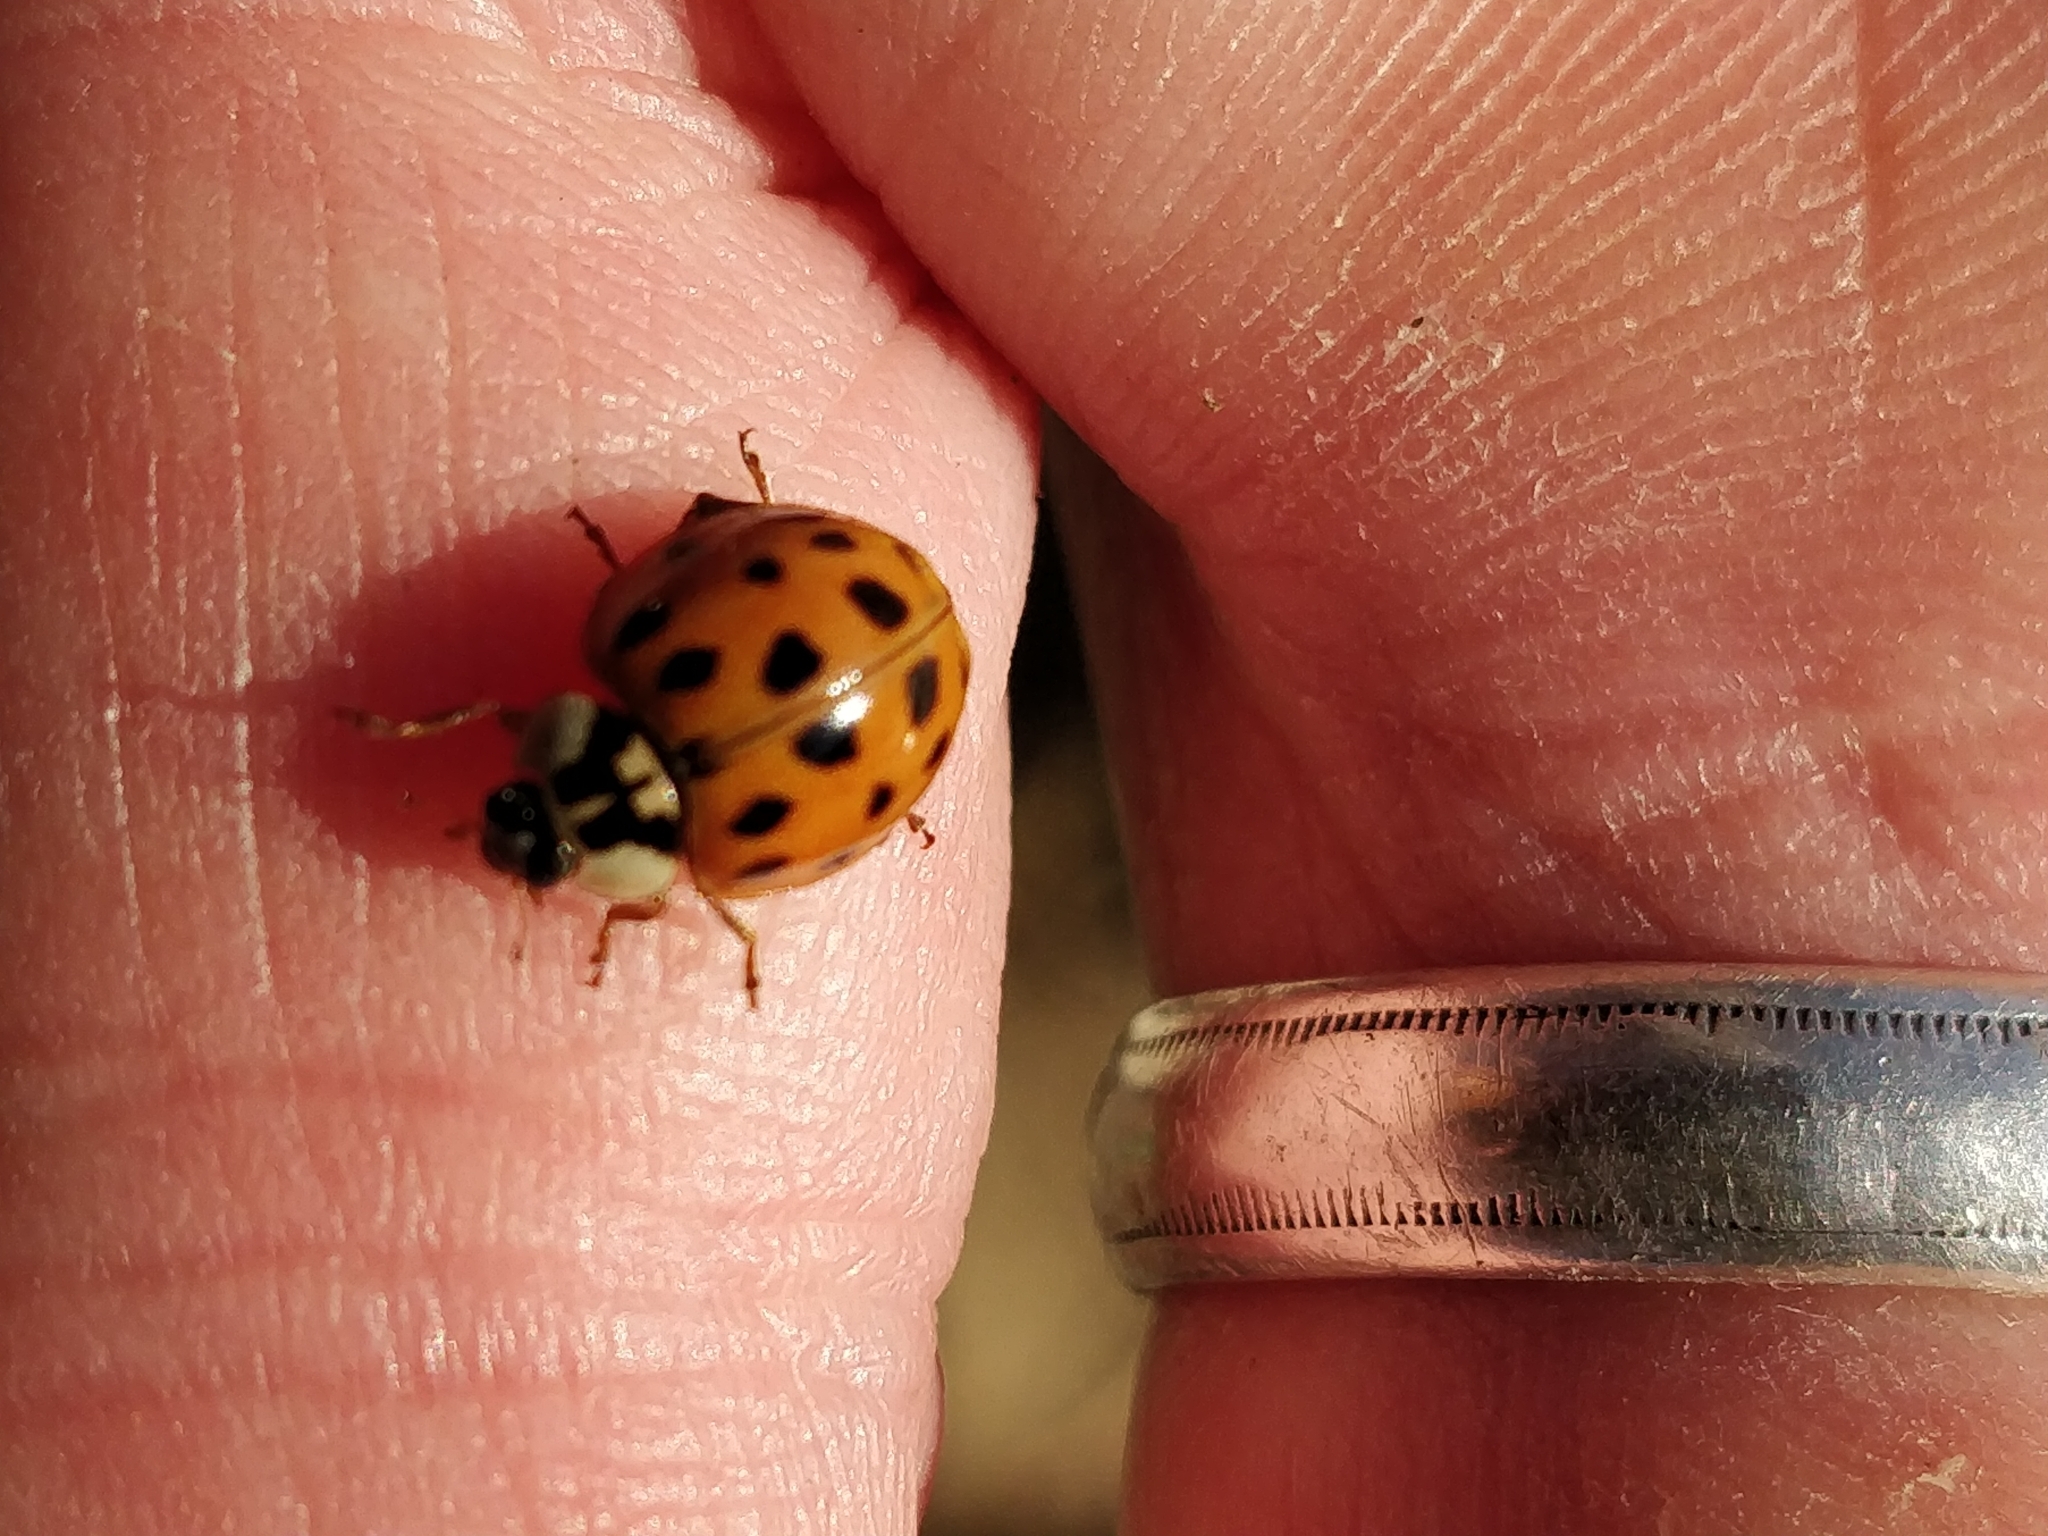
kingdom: Animalia
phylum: Arthropoda
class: Insecta
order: Coleoptera
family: Coccinellidae
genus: Harmonia
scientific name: Harmonia axyridis
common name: Harlequin ladybird
